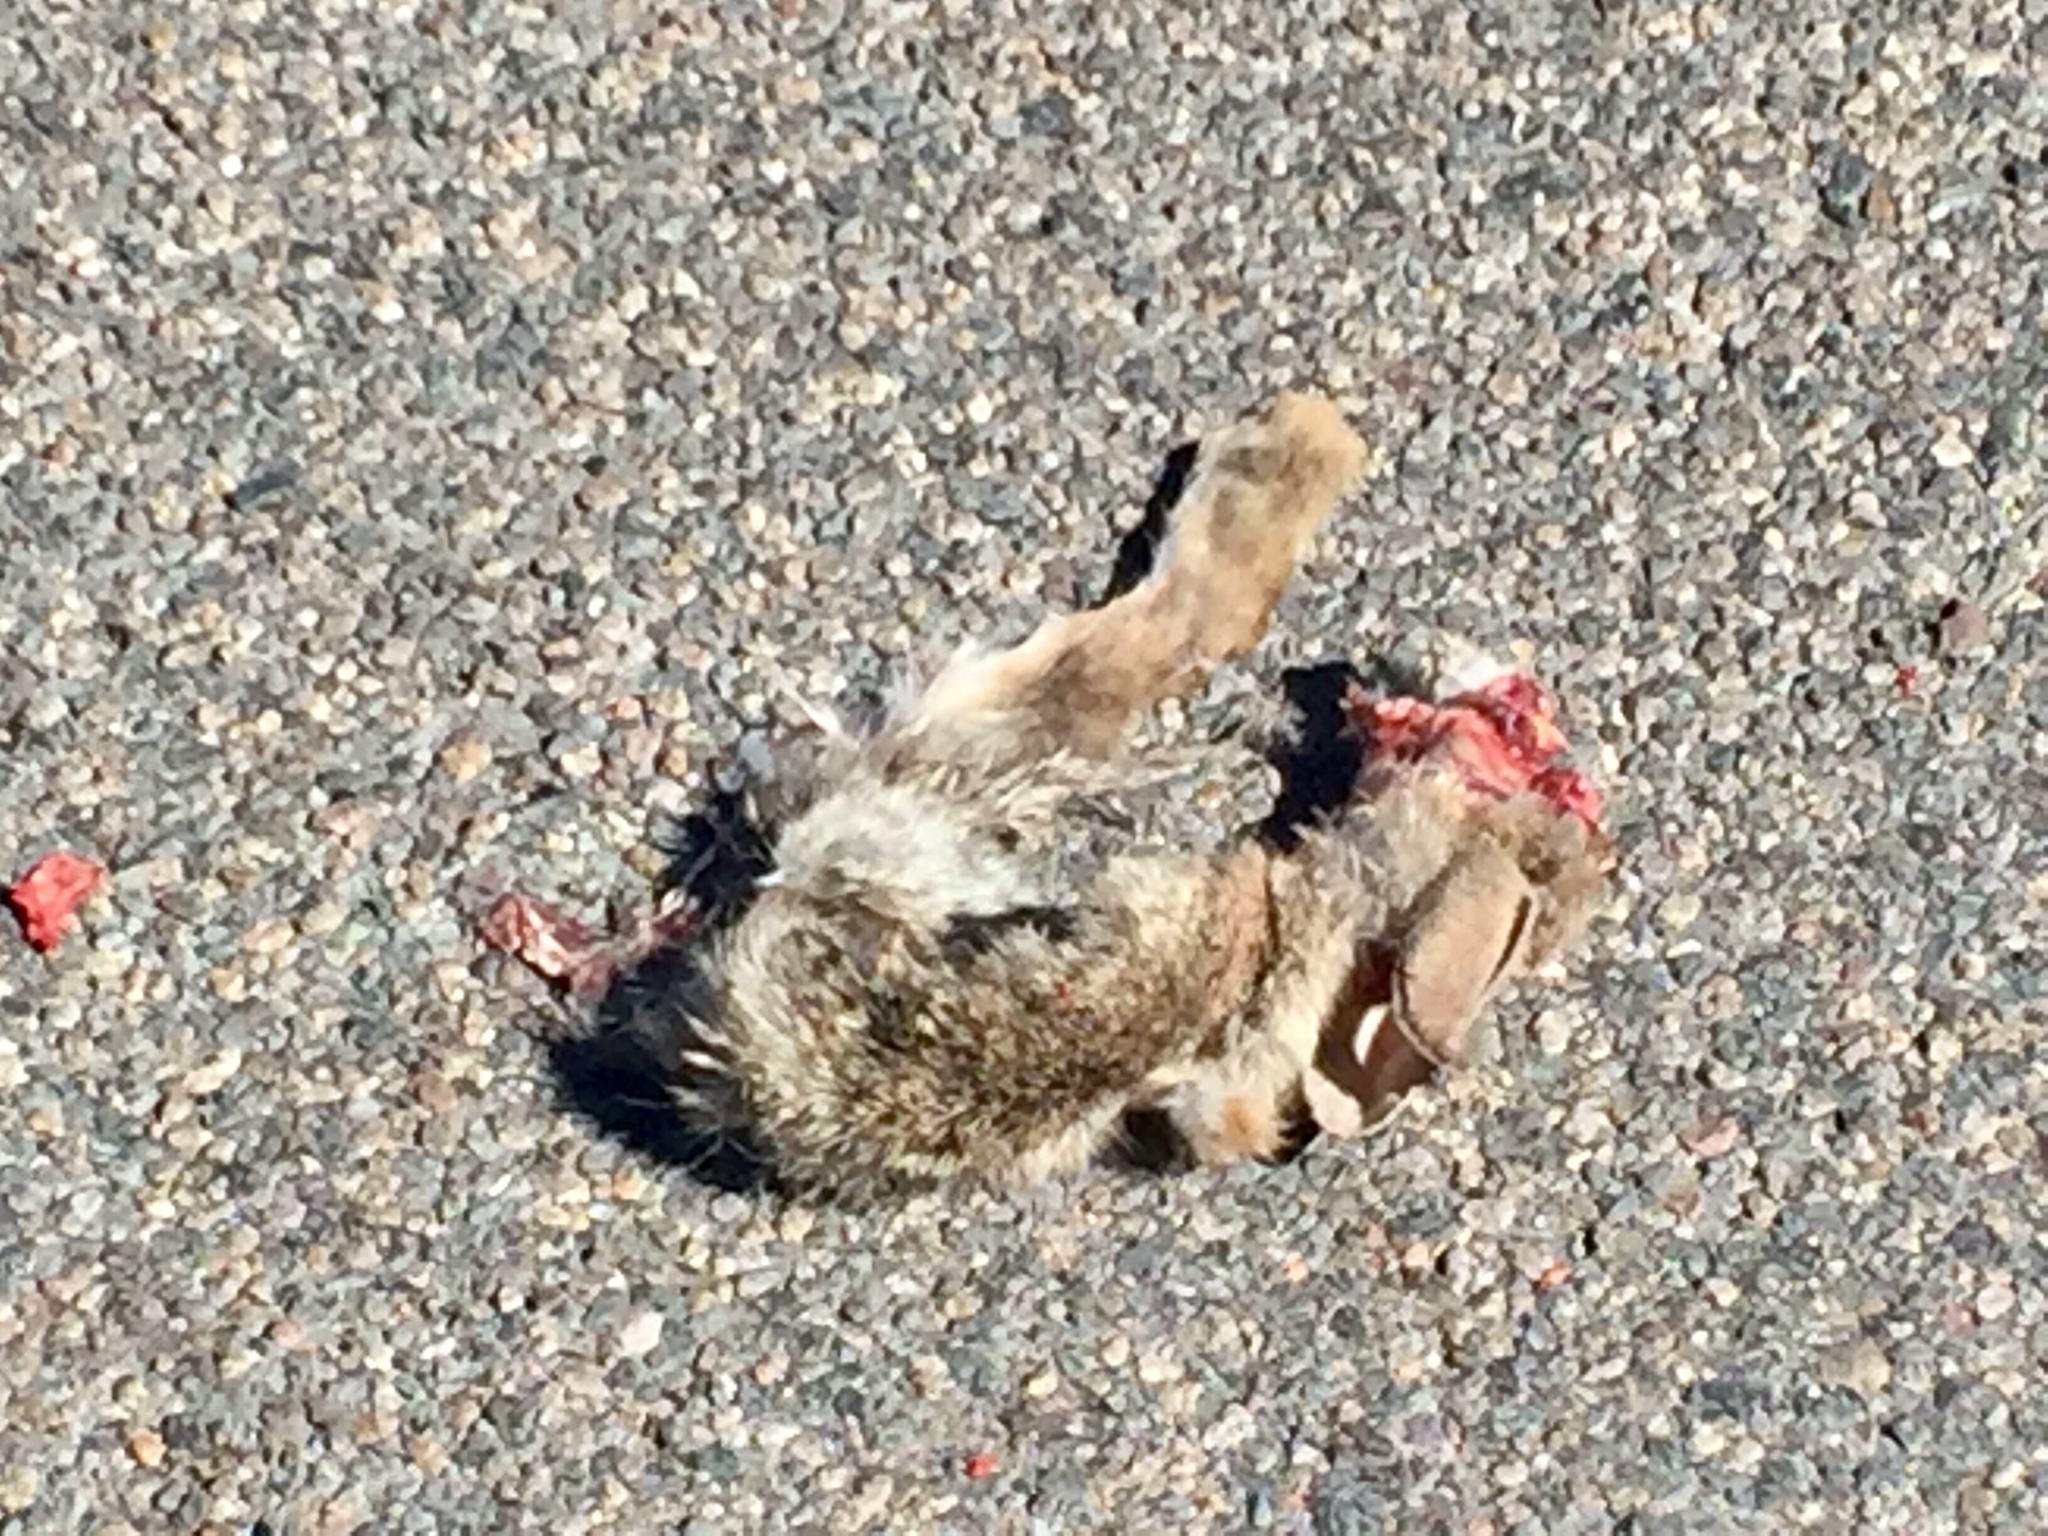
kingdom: Animalia
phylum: Chordata
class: Mammalia
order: Lagomorpha
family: Leporidae
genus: Sylvilagus
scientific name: Sylvilagus audubonii
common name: Desert cottontail
